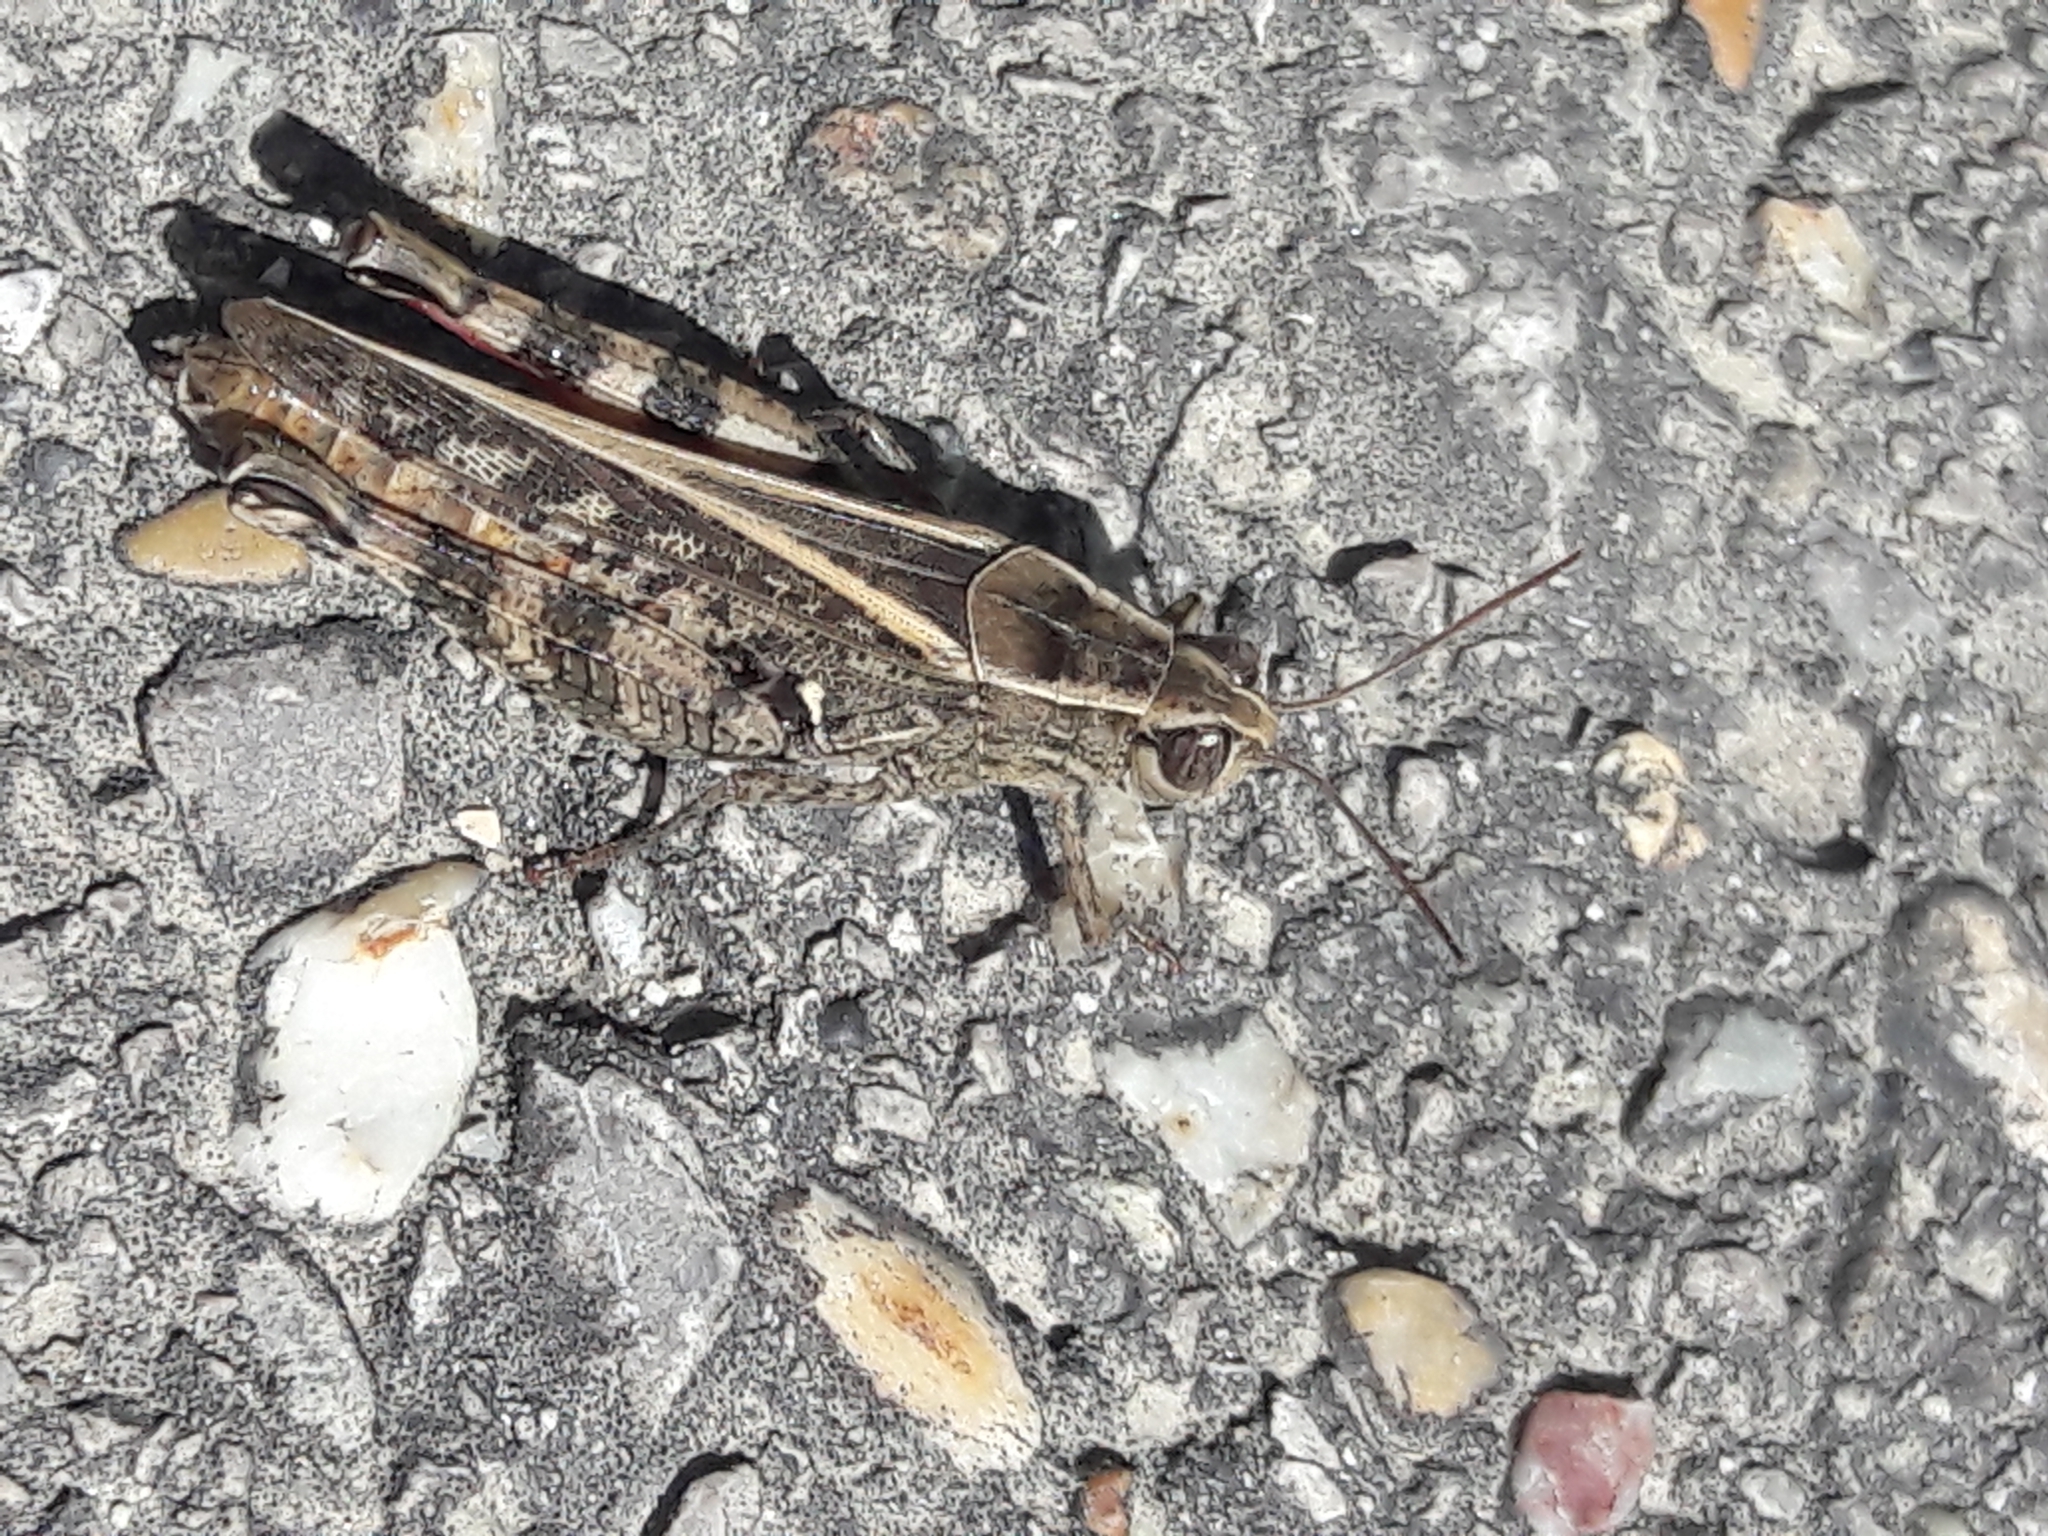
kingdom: Animalia
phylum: Arthropoda
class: Insecta
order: Orthoptera
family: Acrididae
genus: Calliptamus
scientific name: Calliptamus italicus
